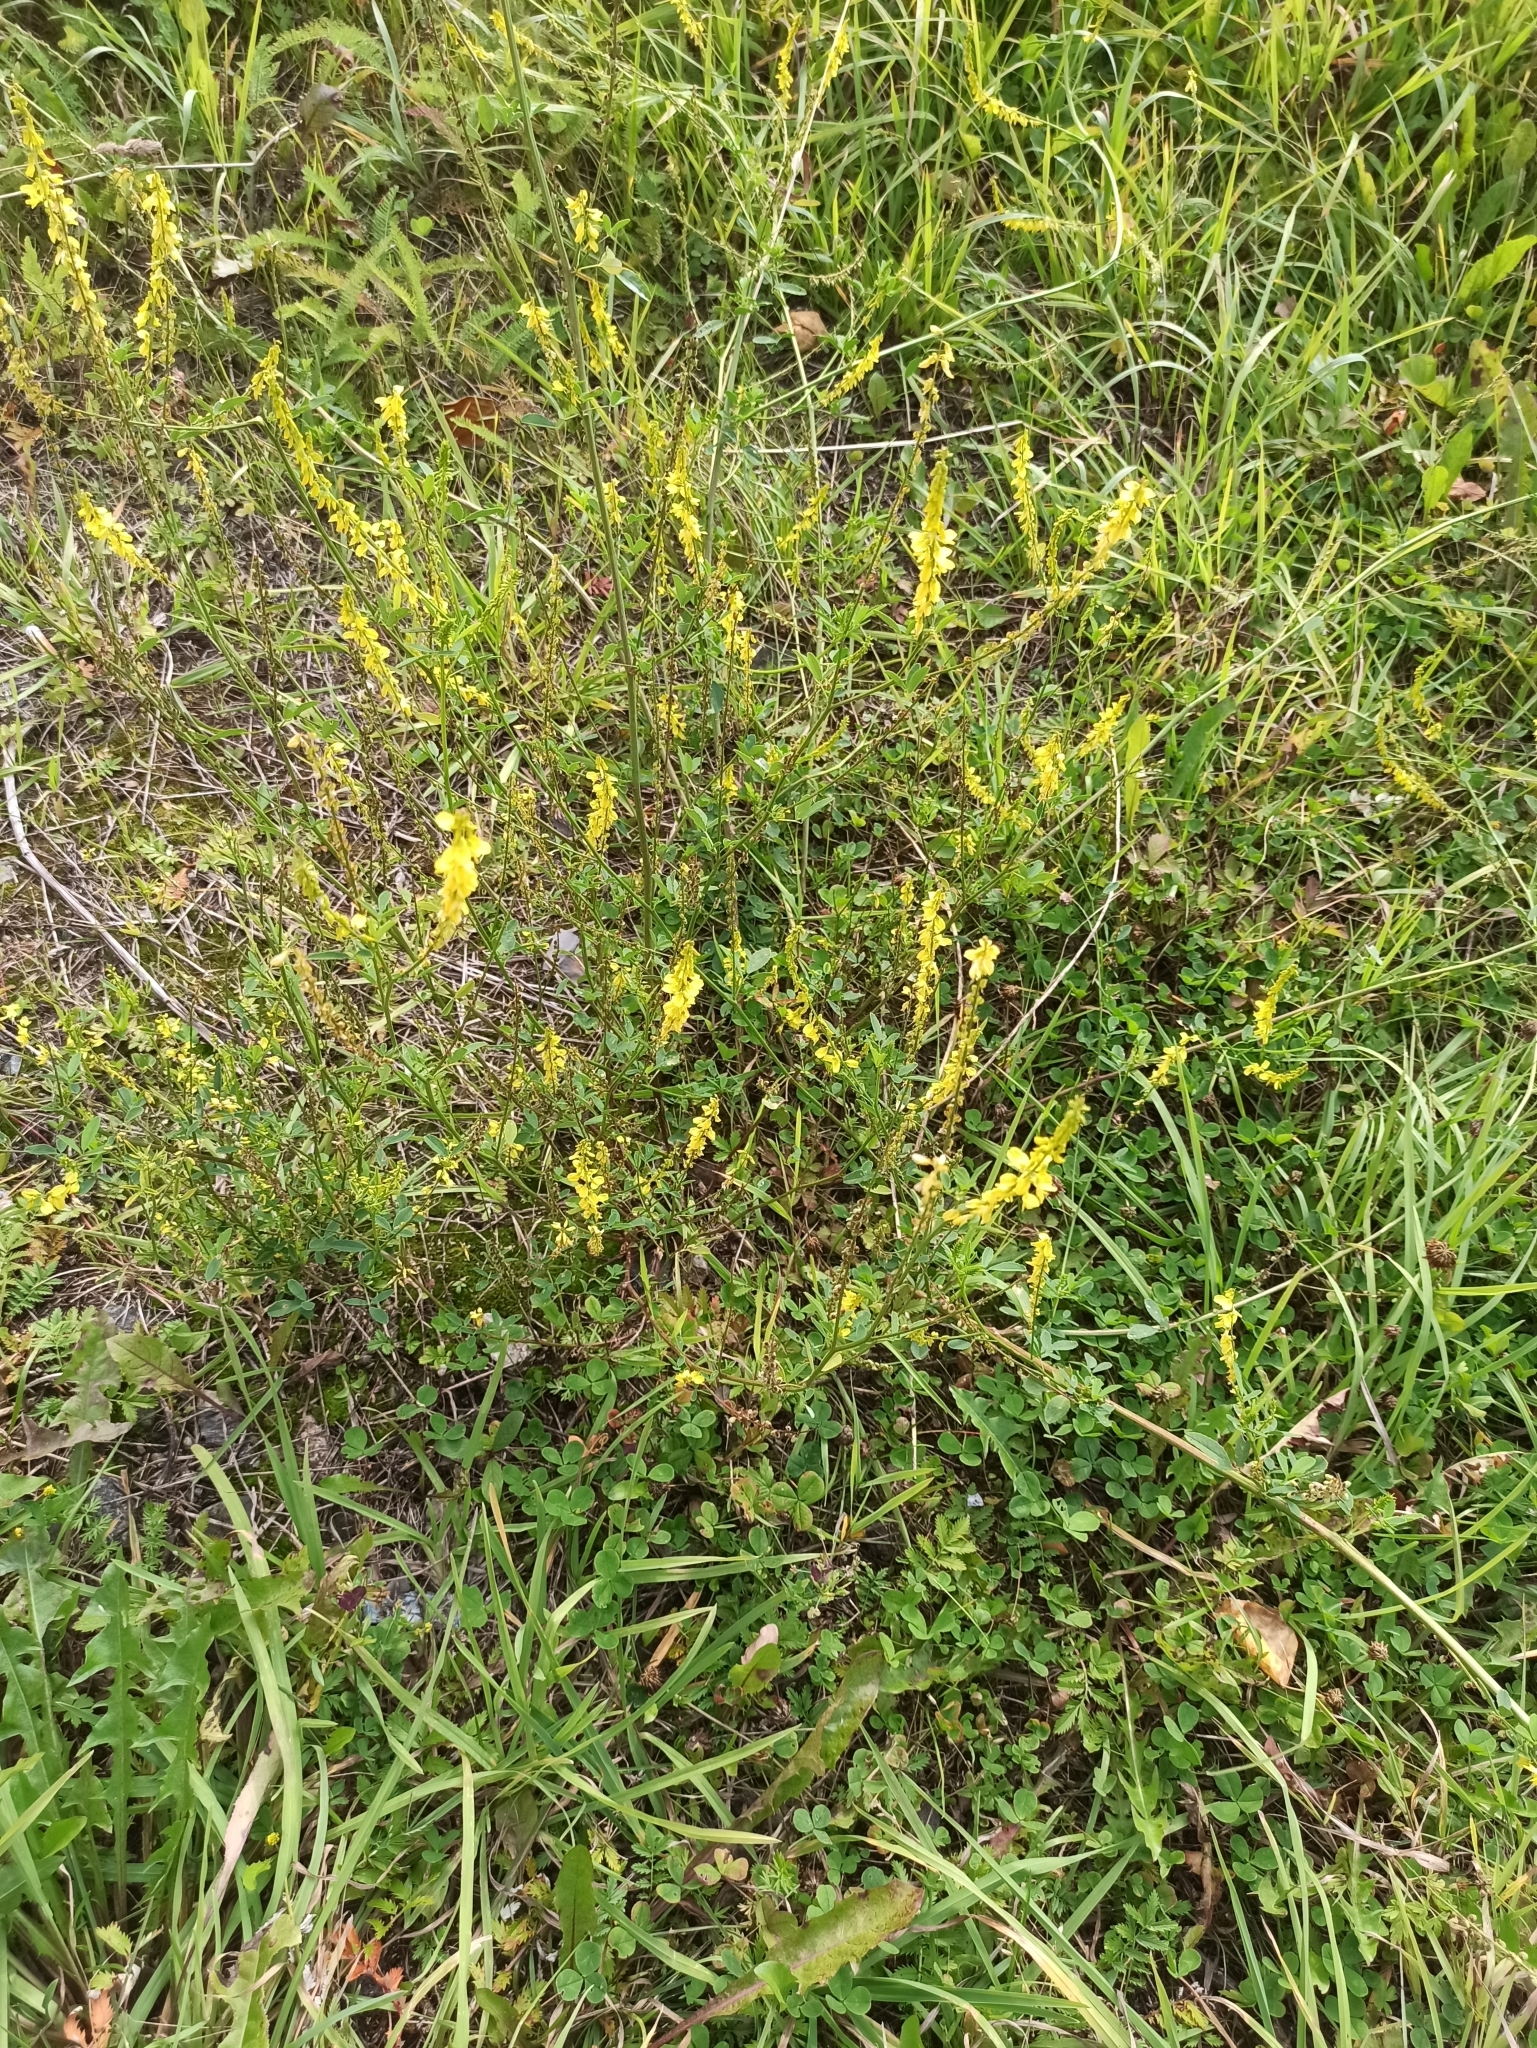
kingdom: Plantae
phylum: Tracheophyta
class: Magnoliopsida
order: Fabales
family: Fabaceae
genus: Melilotus
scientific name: Melilotus officinalis
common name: Sweetclover
